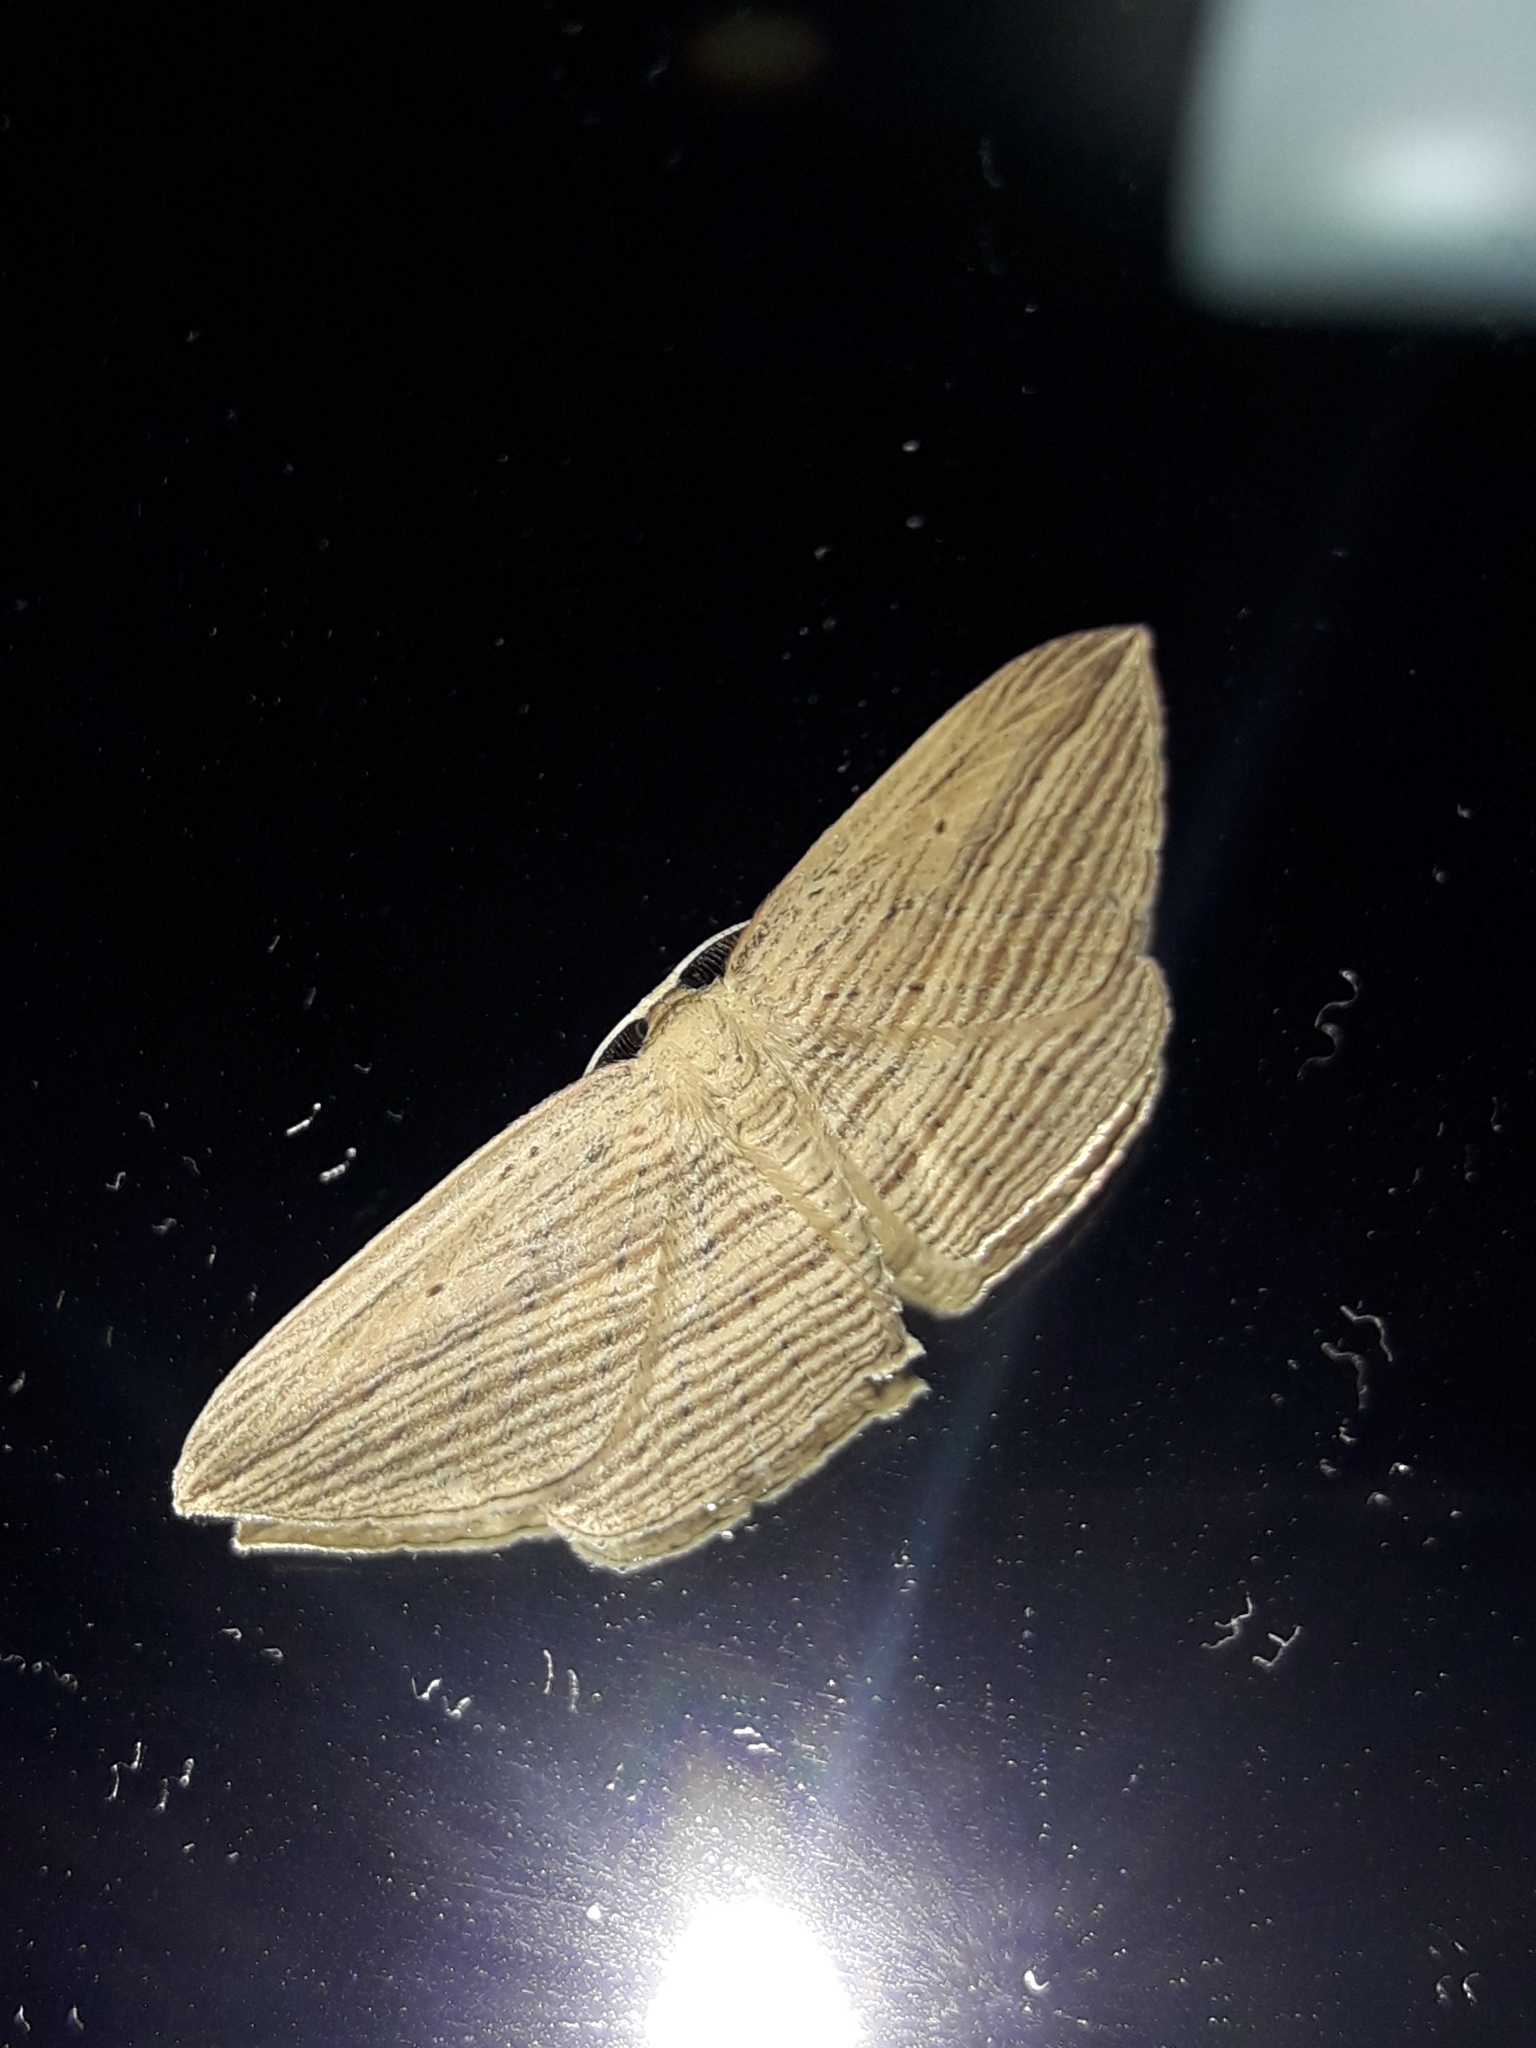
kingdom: Animalia
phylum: Arthropoda
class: Insecta
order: Lepidoptera
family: Geometridae
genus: Epiphryne
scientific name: Epiphryne verriculata
